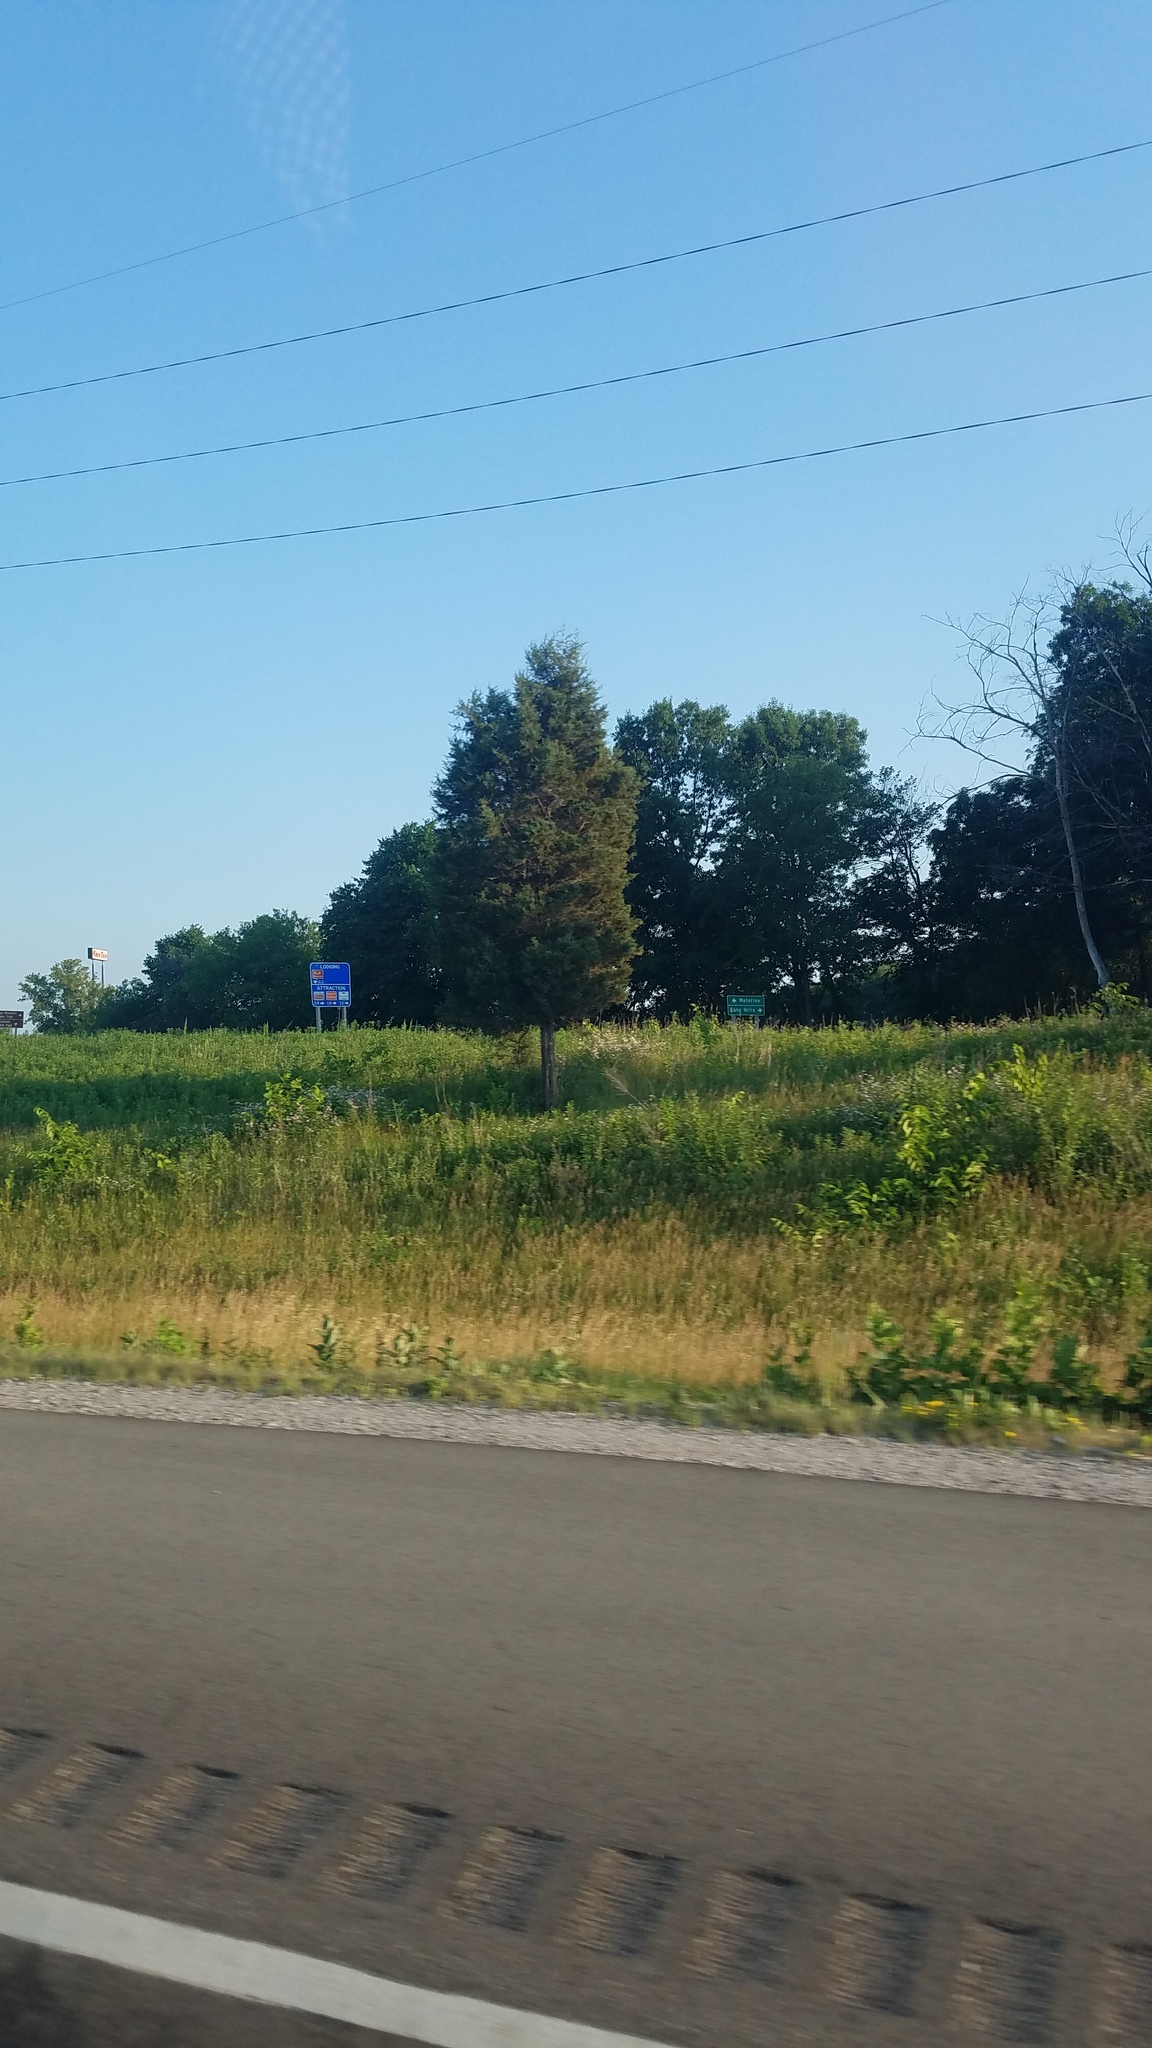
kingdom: Plantae
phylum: Tracheophyta
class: Pinopsida
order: Pinales
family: Cupressaceae
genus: Juniperus
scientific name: Juniperus virginiana
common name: Red juniper
